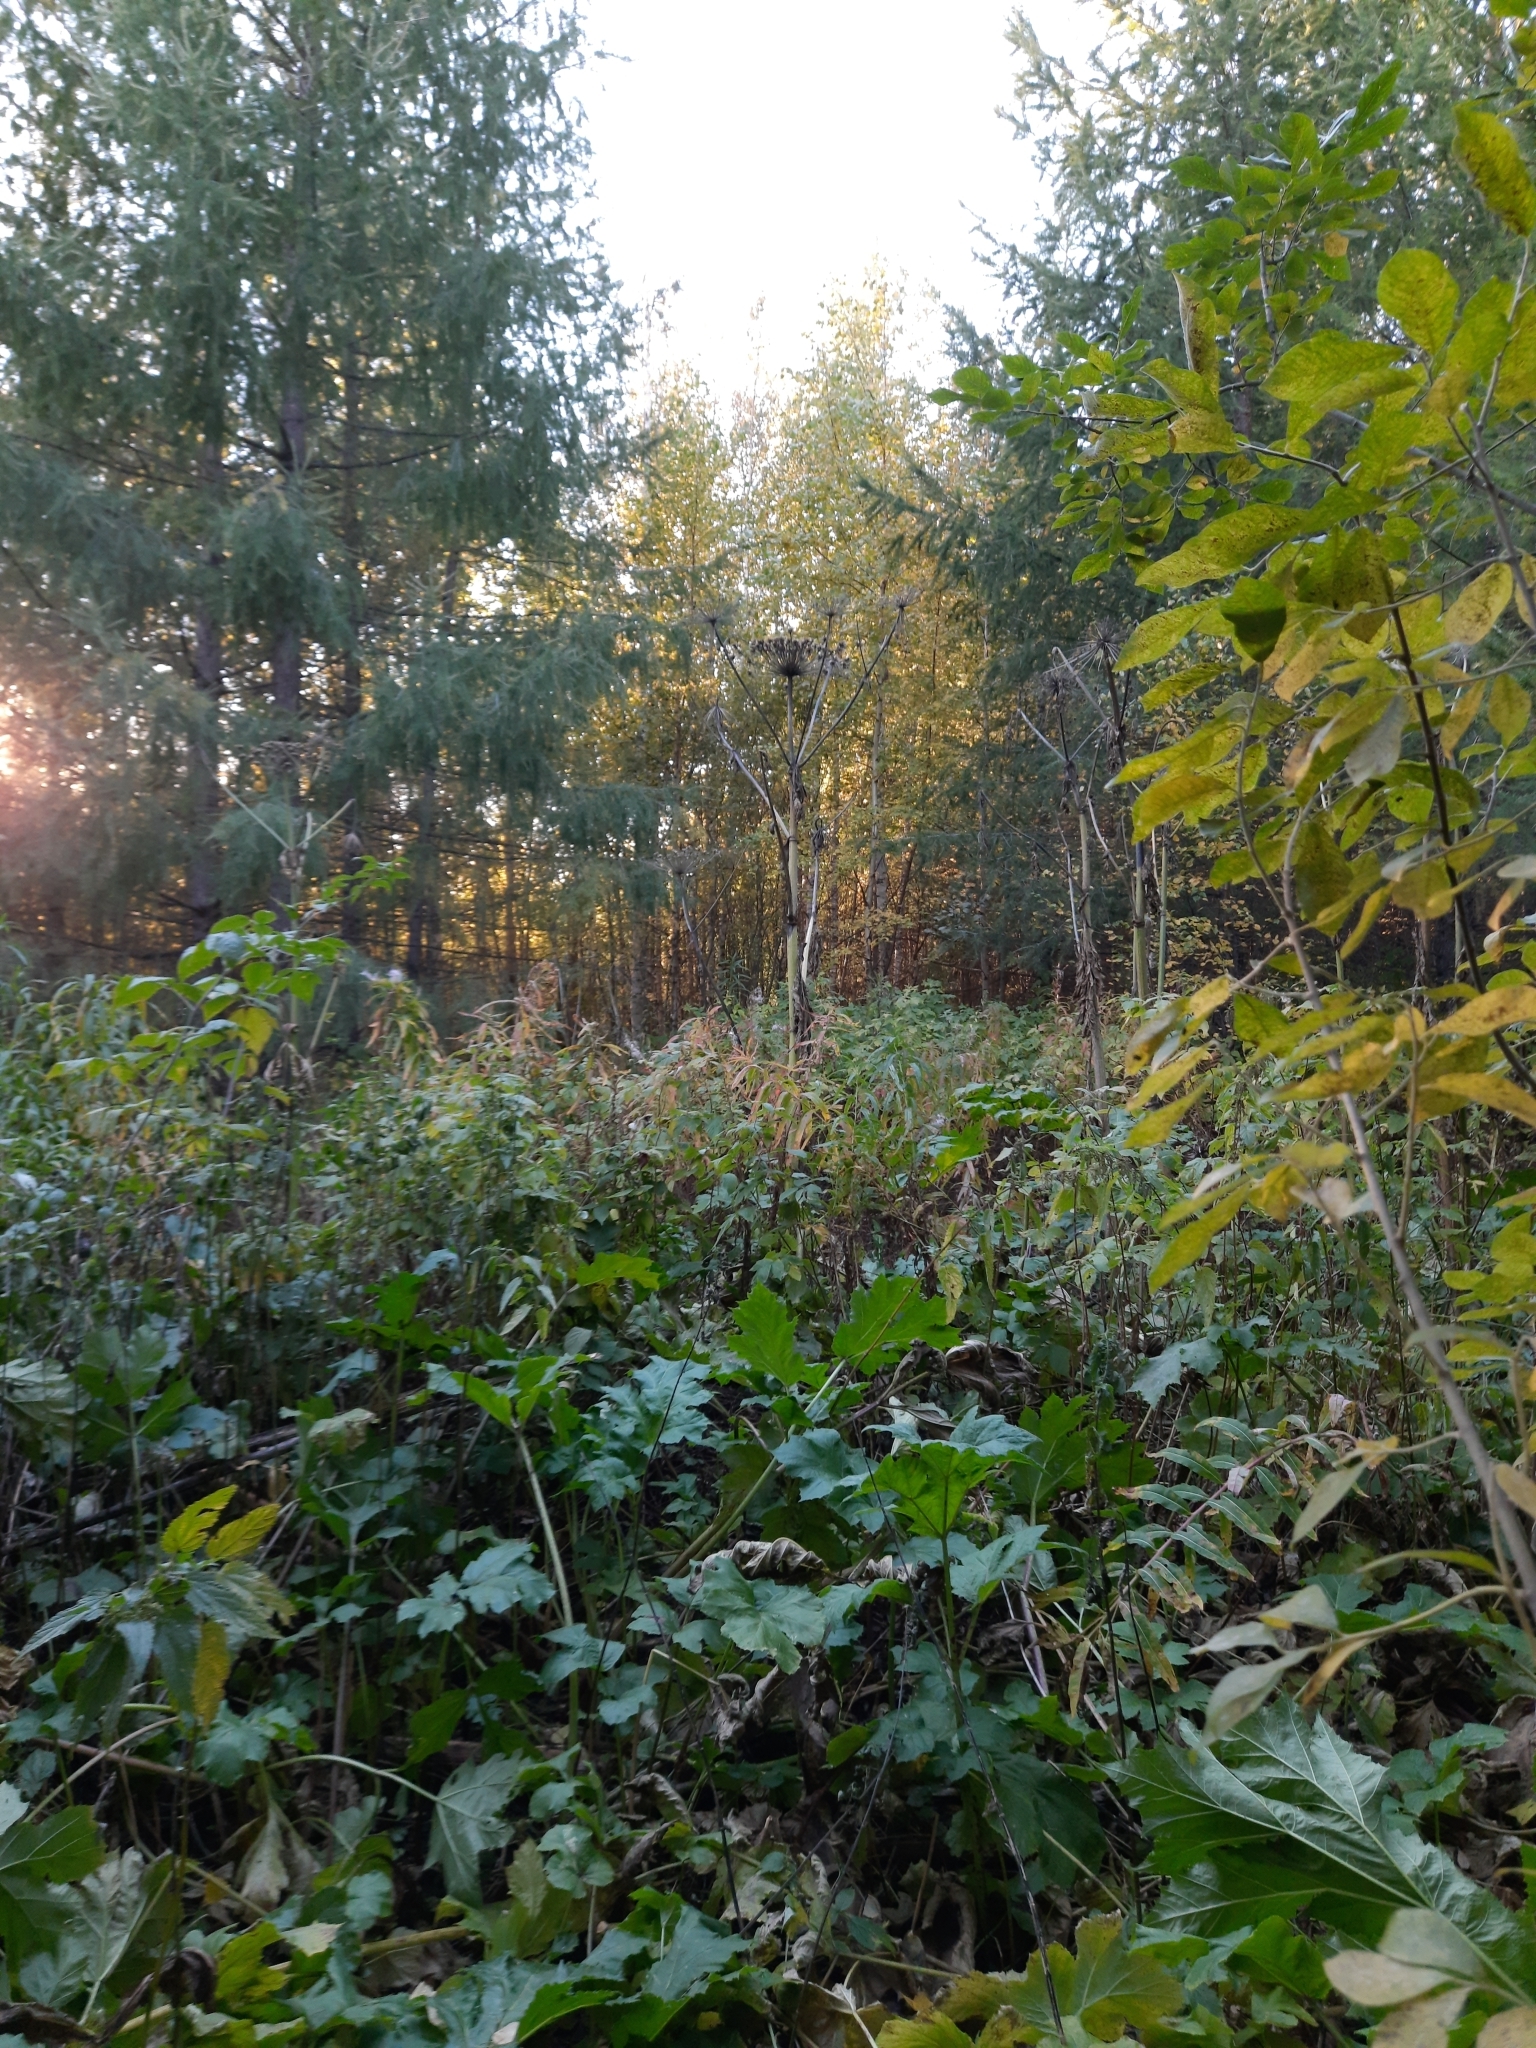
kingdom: Plantae
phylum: Tracheophyta
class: Magnoliopsida
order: Apiales
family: Apiaceae
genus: Heracleum
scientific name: Heracleum sosnowskyi
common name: Sosnowsky's hogweed
